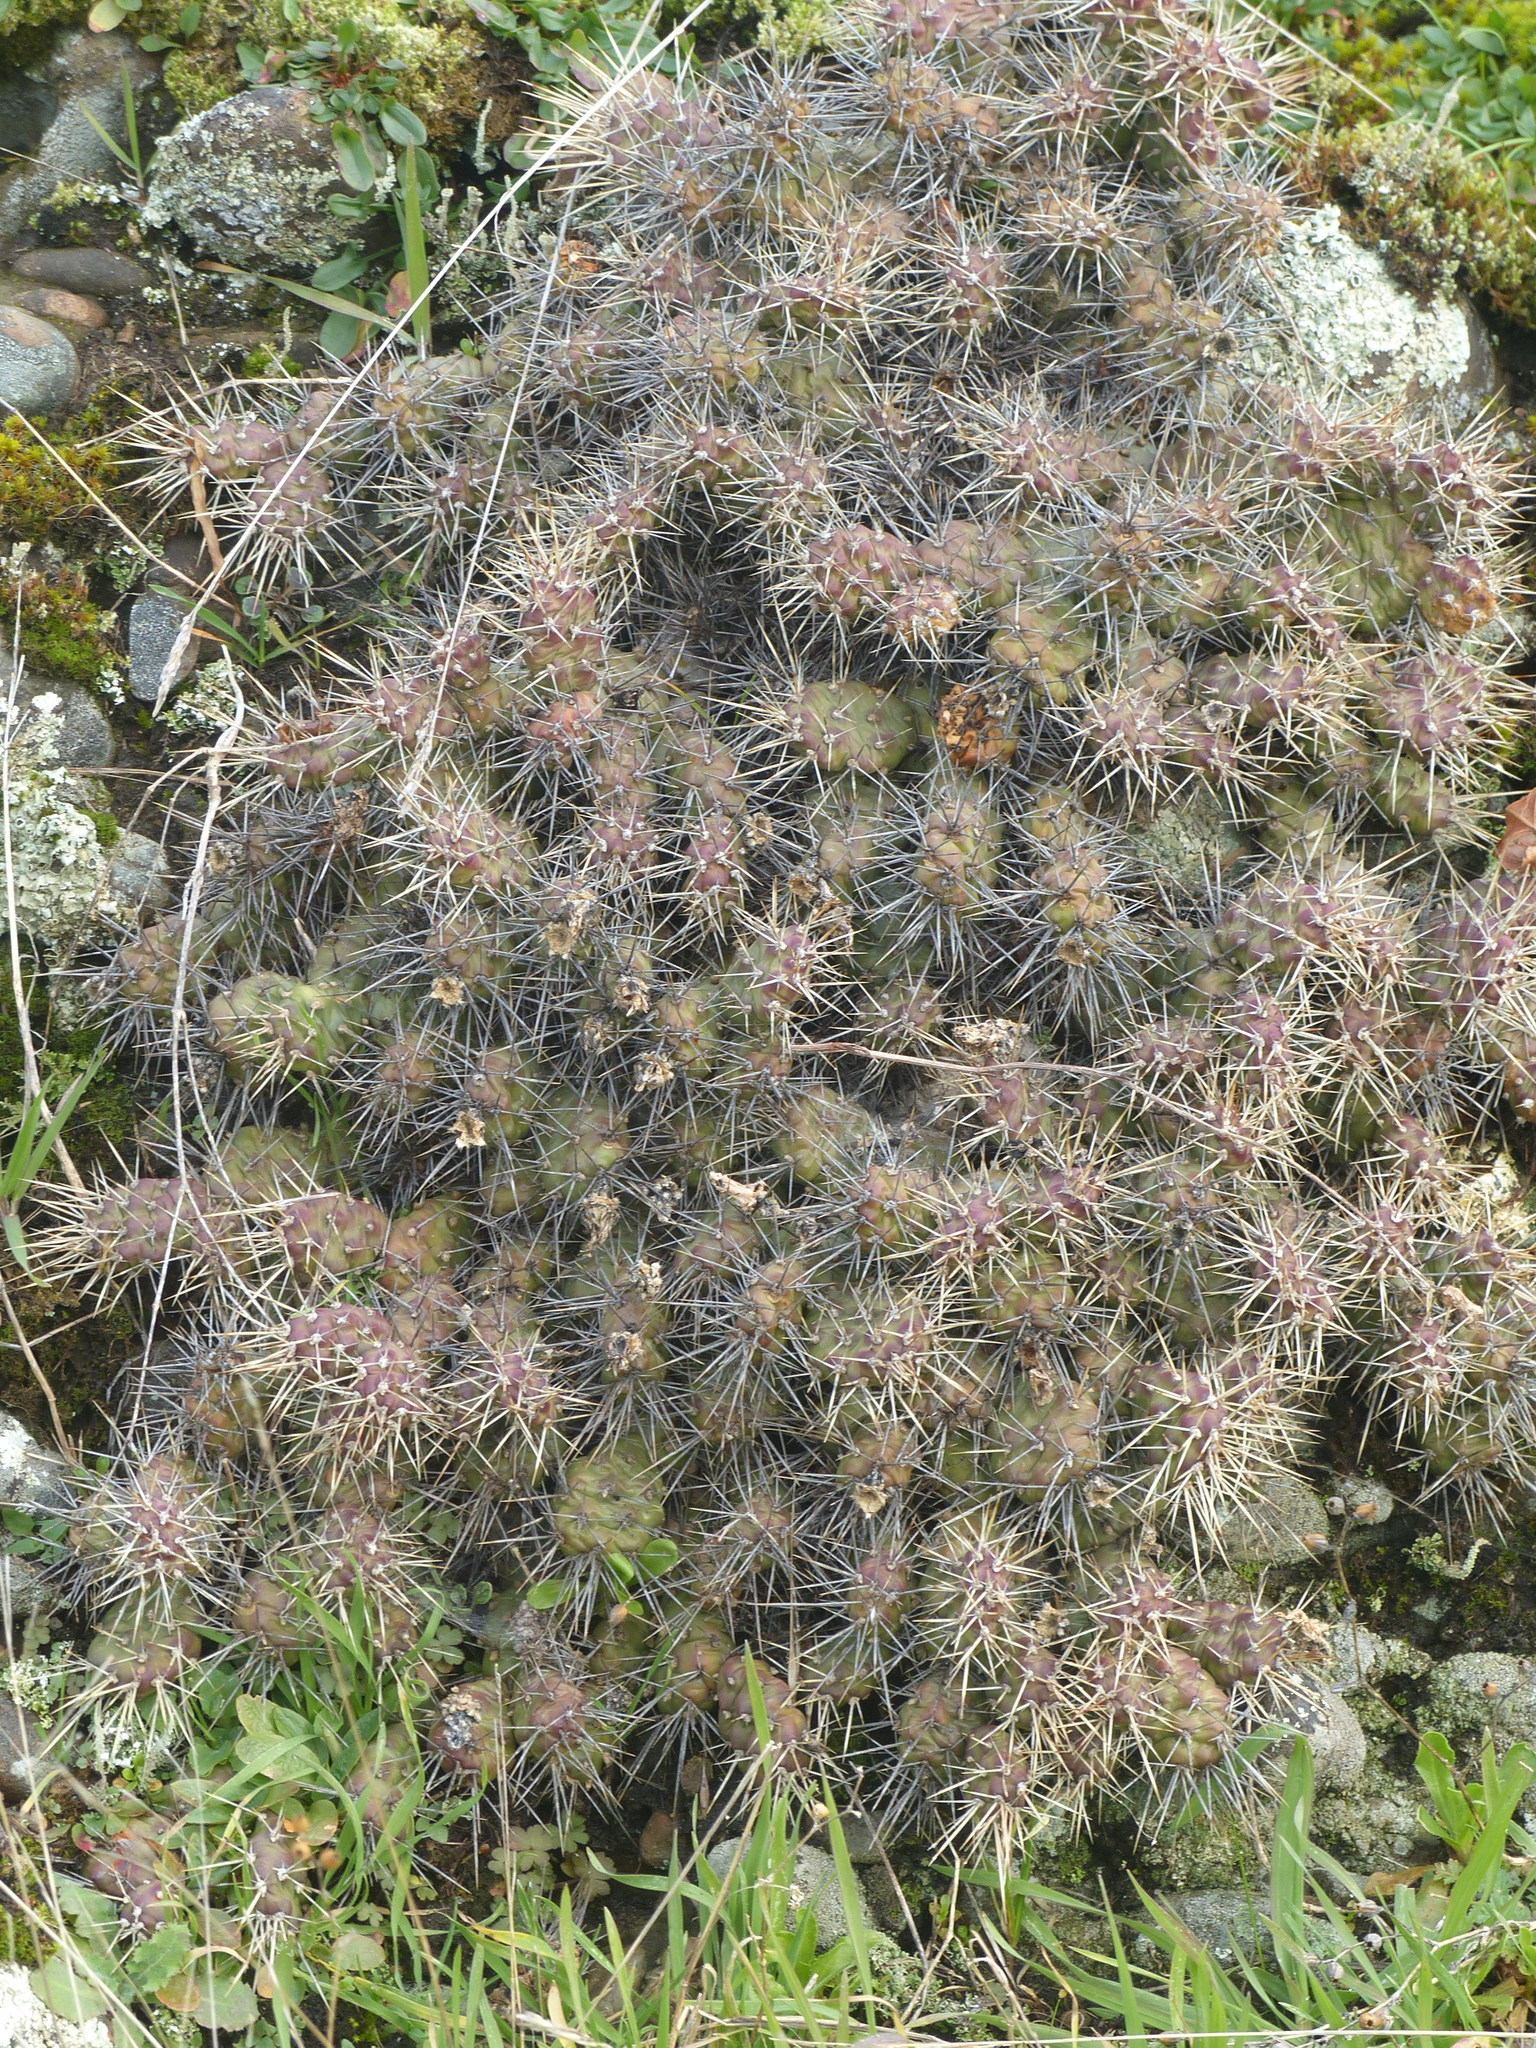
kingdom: Plantae
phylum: Tracheophyta
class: Magnoliopsida
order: Caryophyllales
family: Cactaceae
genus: Opuntia
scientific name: Opuntia fragilis
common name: Brittle cactus
